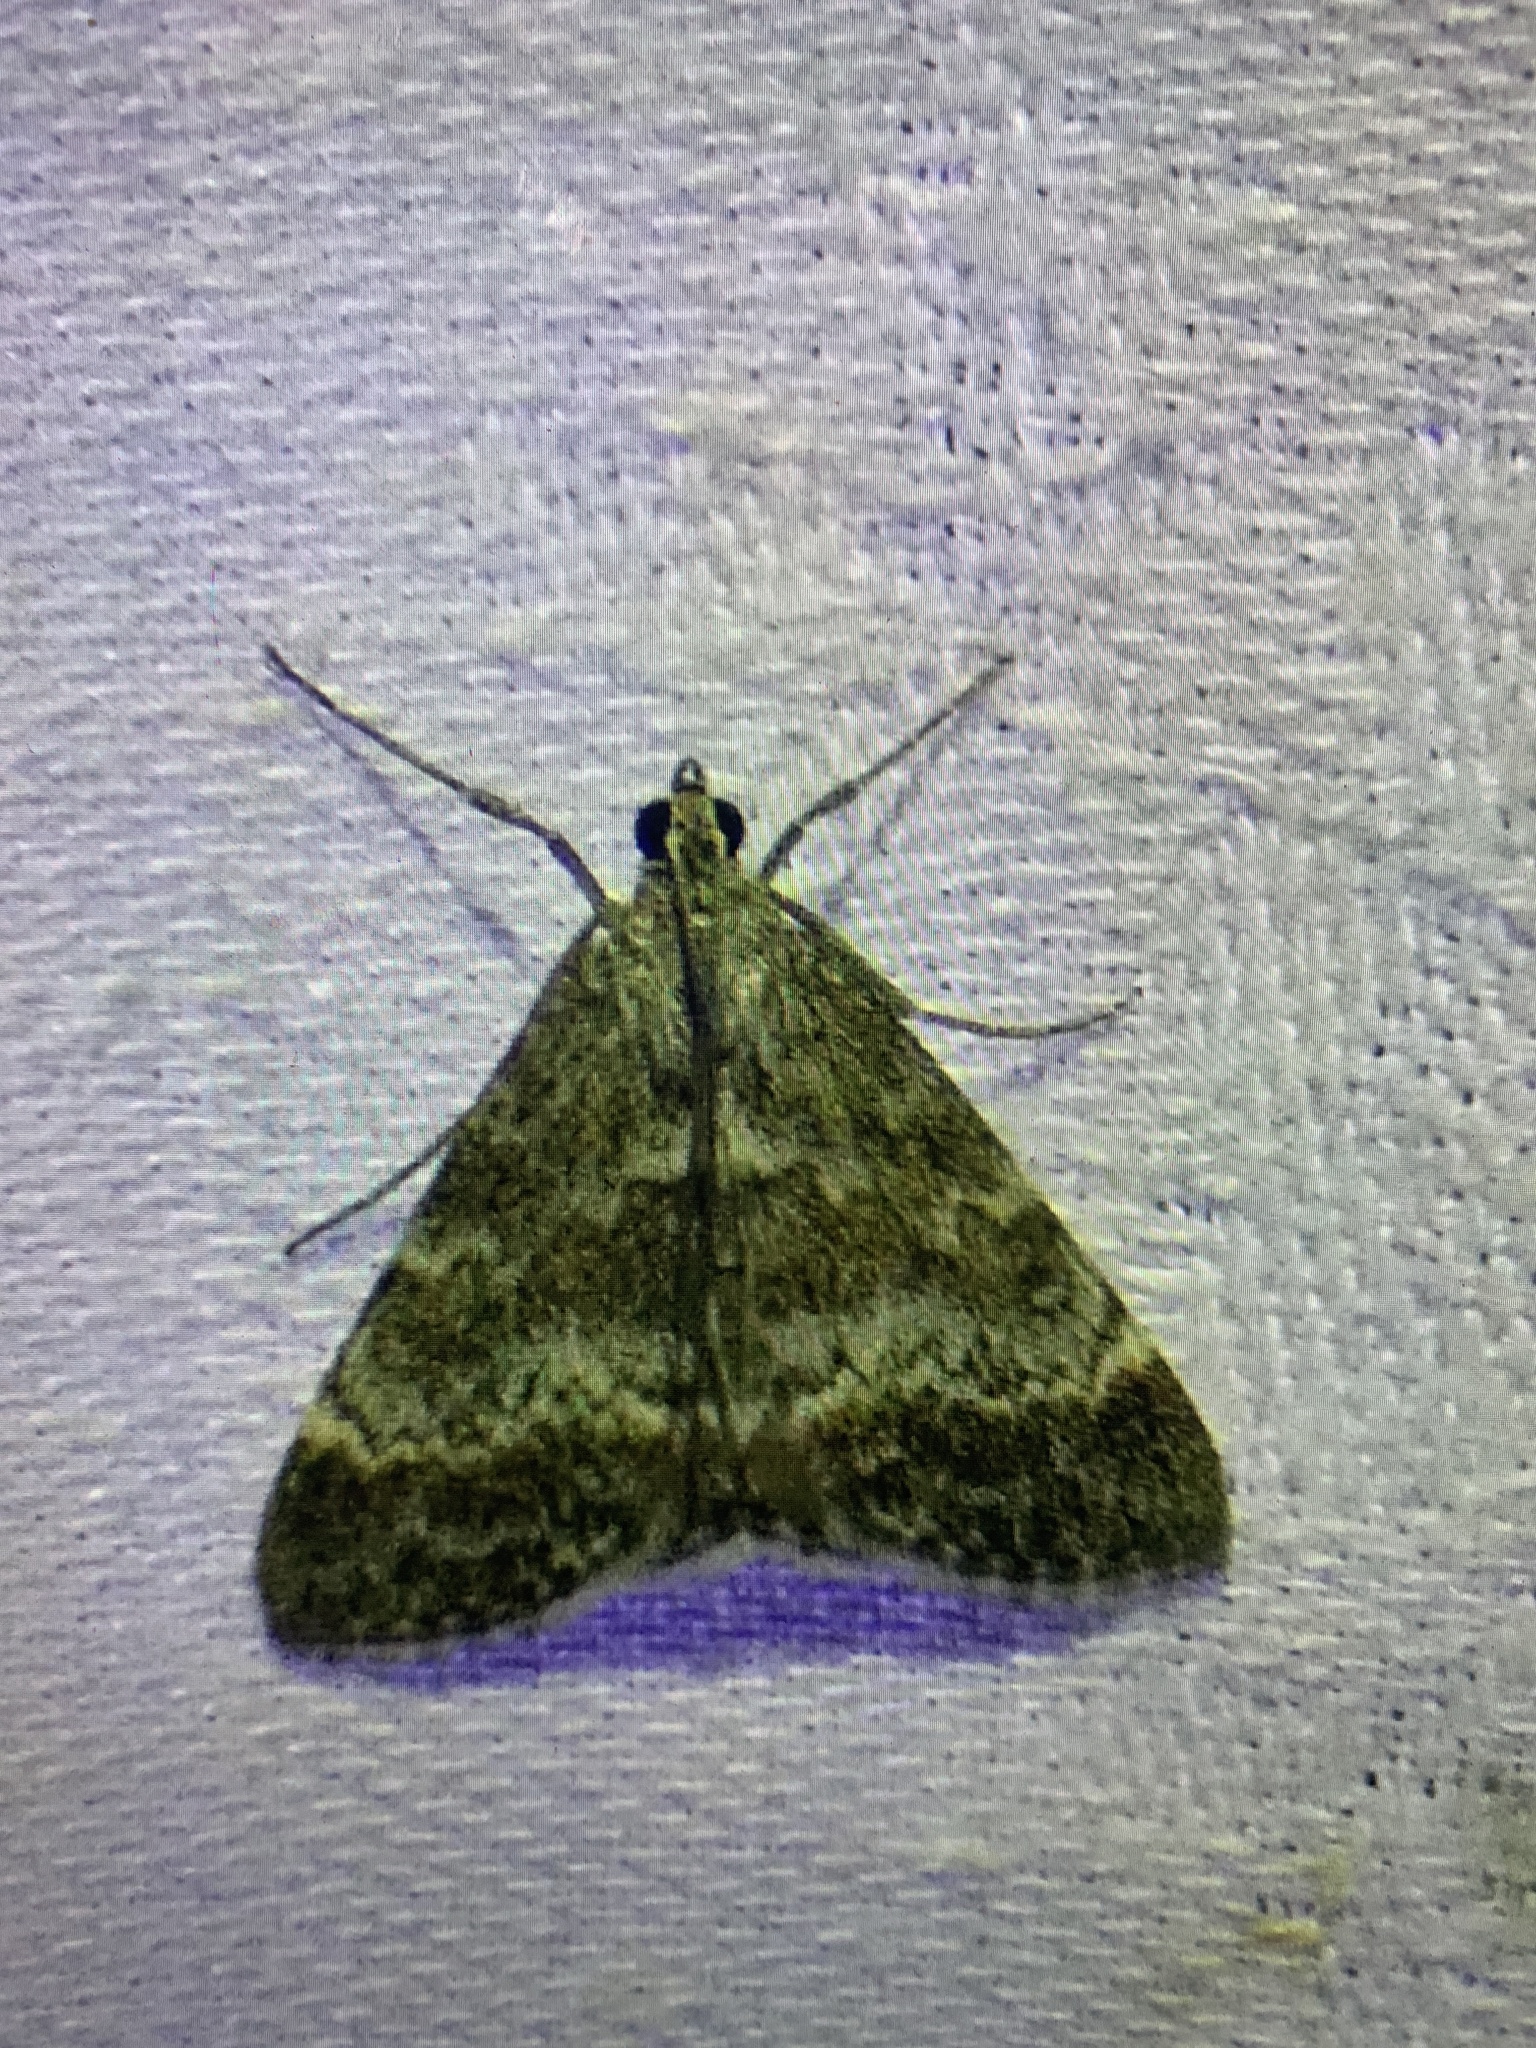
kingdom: Animalia
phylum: Arthropoda
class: Insecta
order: Lepidoptera
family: Crambidae
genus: Evergestis
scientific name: Evergestis sophialis
